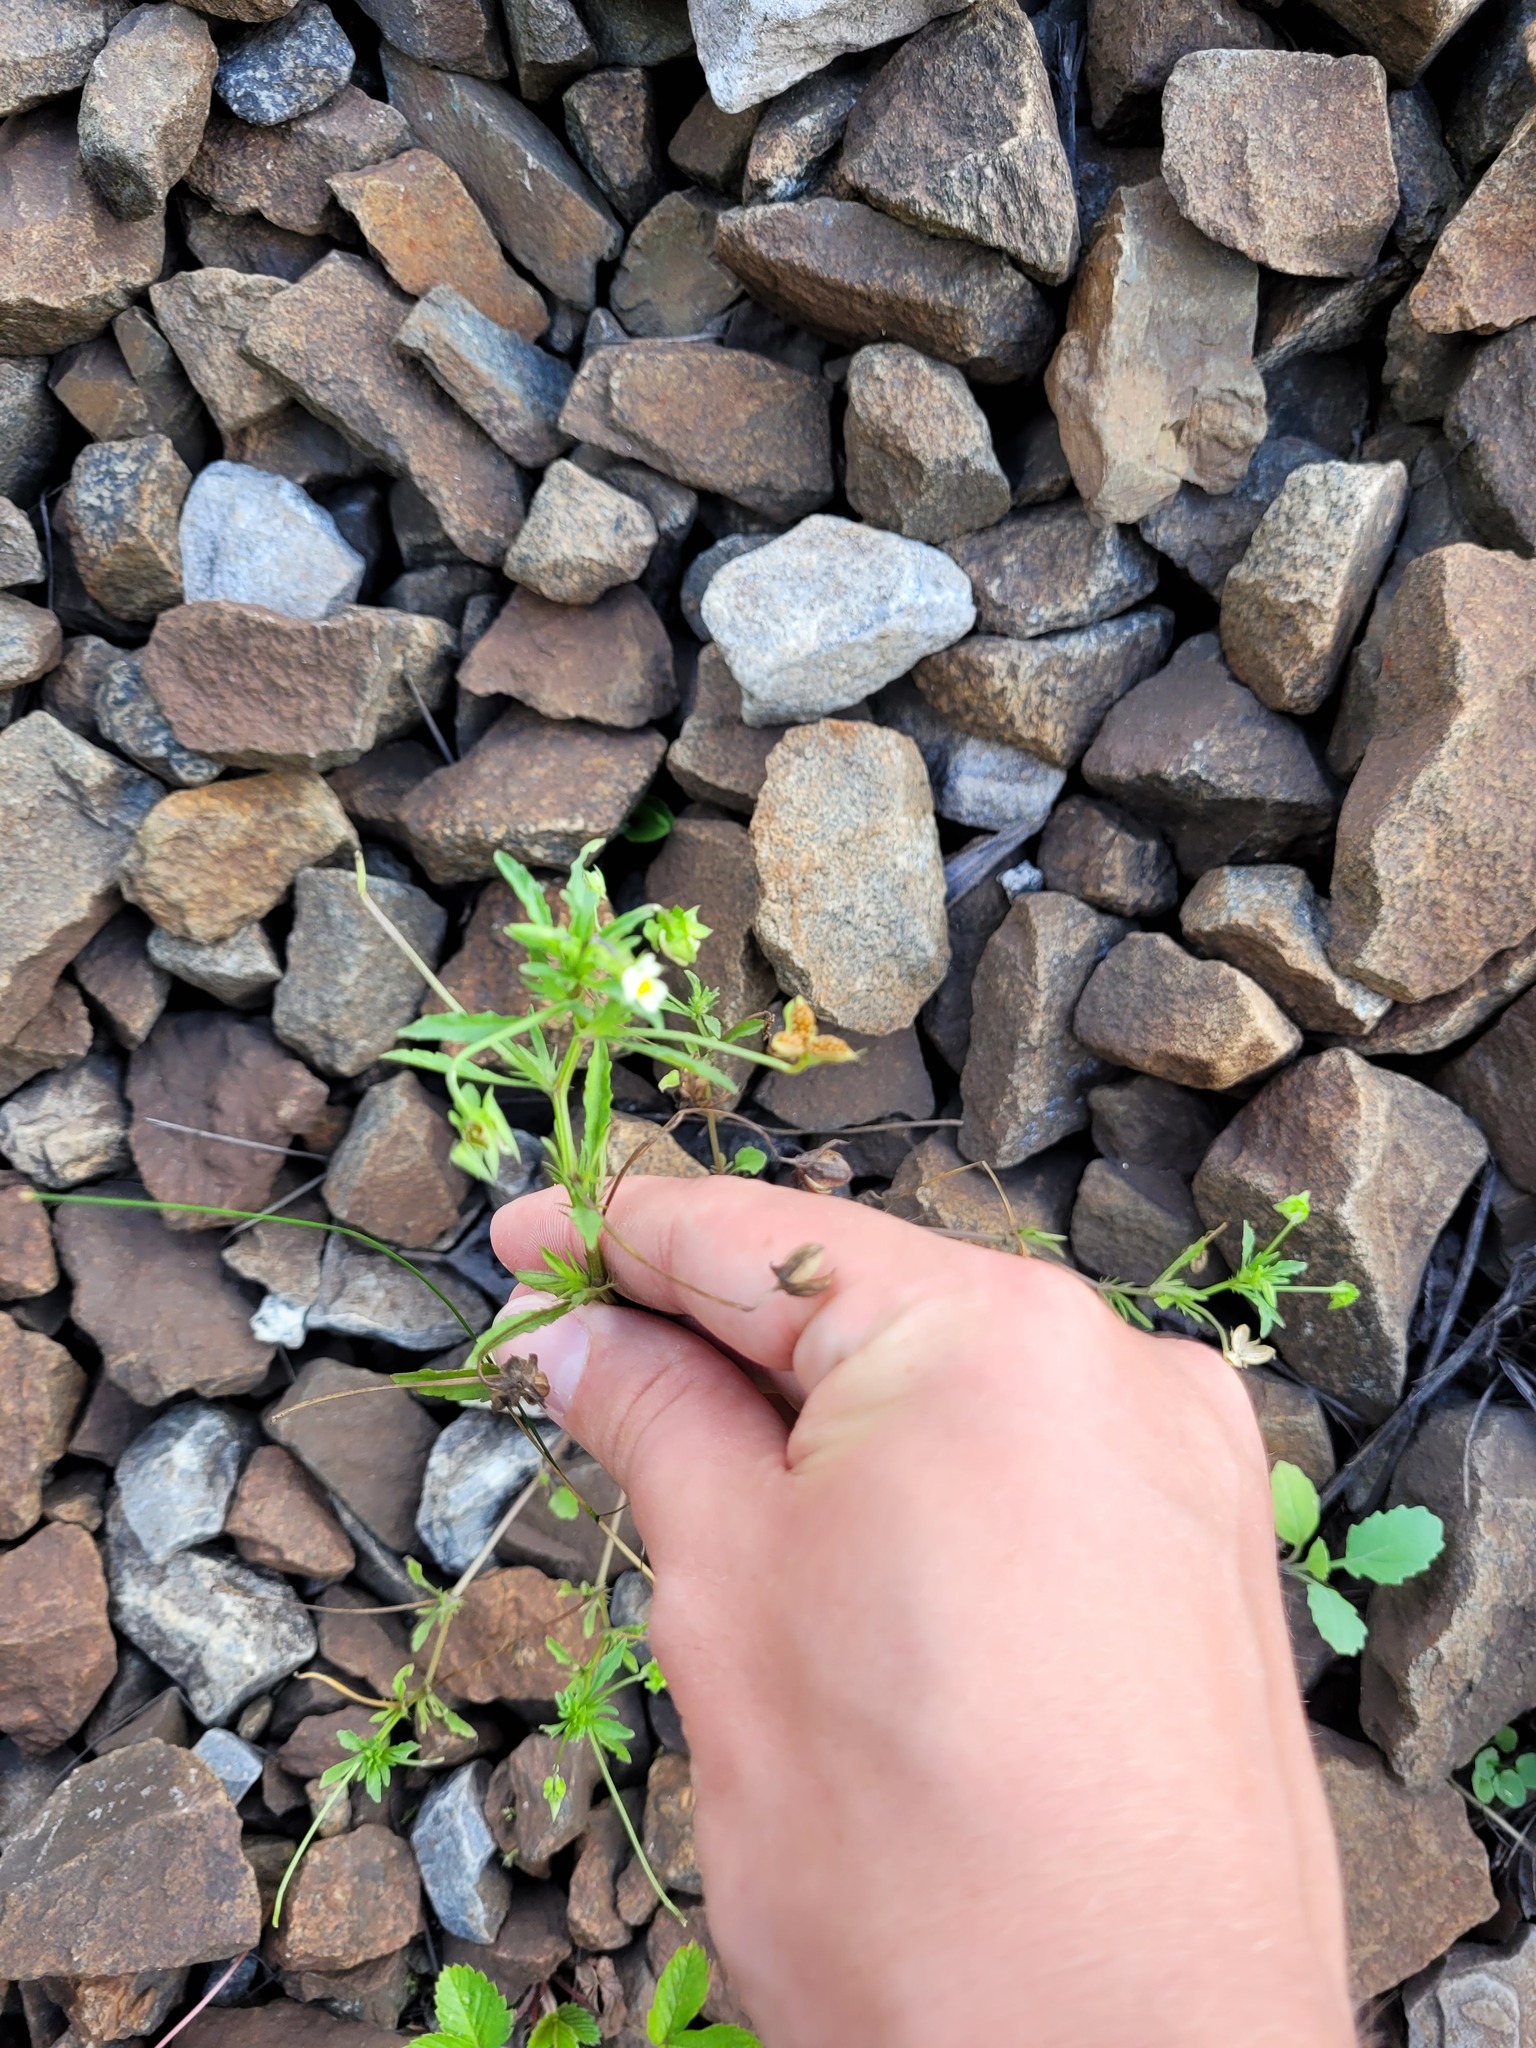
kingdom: Plantae
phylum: Tracheophyta
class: Magnoliopsida
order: Malpighiales
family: Violaceae
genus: Viola
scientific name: Viola arvensis
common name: Field pansy
